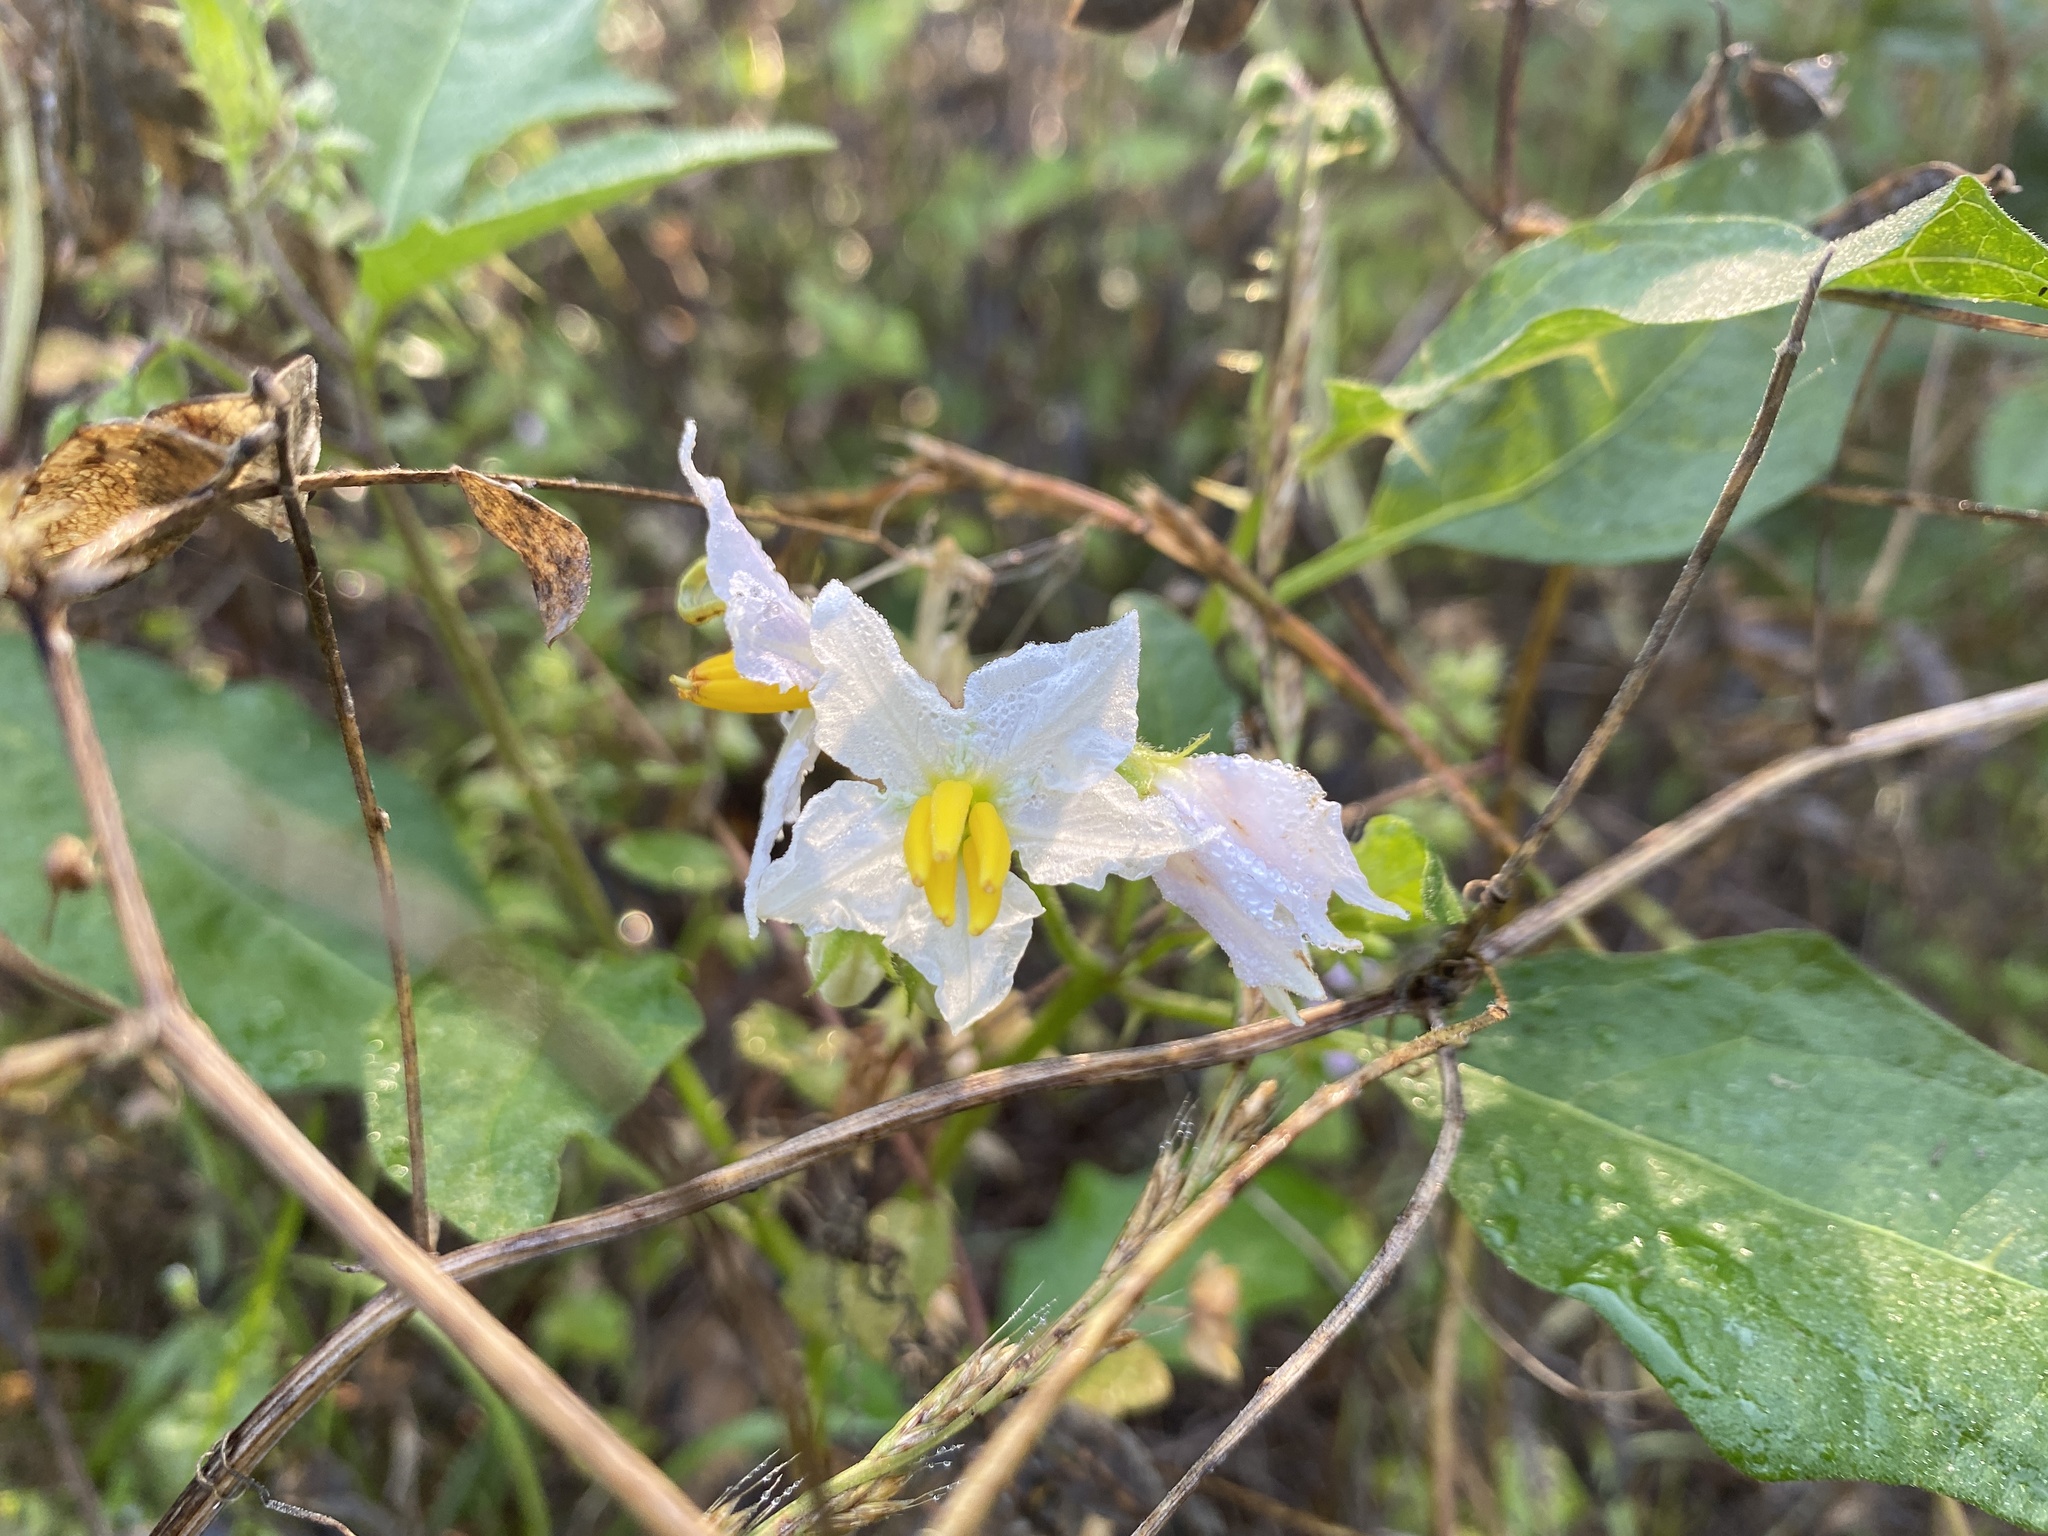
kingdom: Plantae
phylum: Tracheophyta
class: Magnoliopsida
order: Solanales
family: Solanaceae
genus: Solanum
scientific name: Solanum carolinense
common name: Horse-nettle
